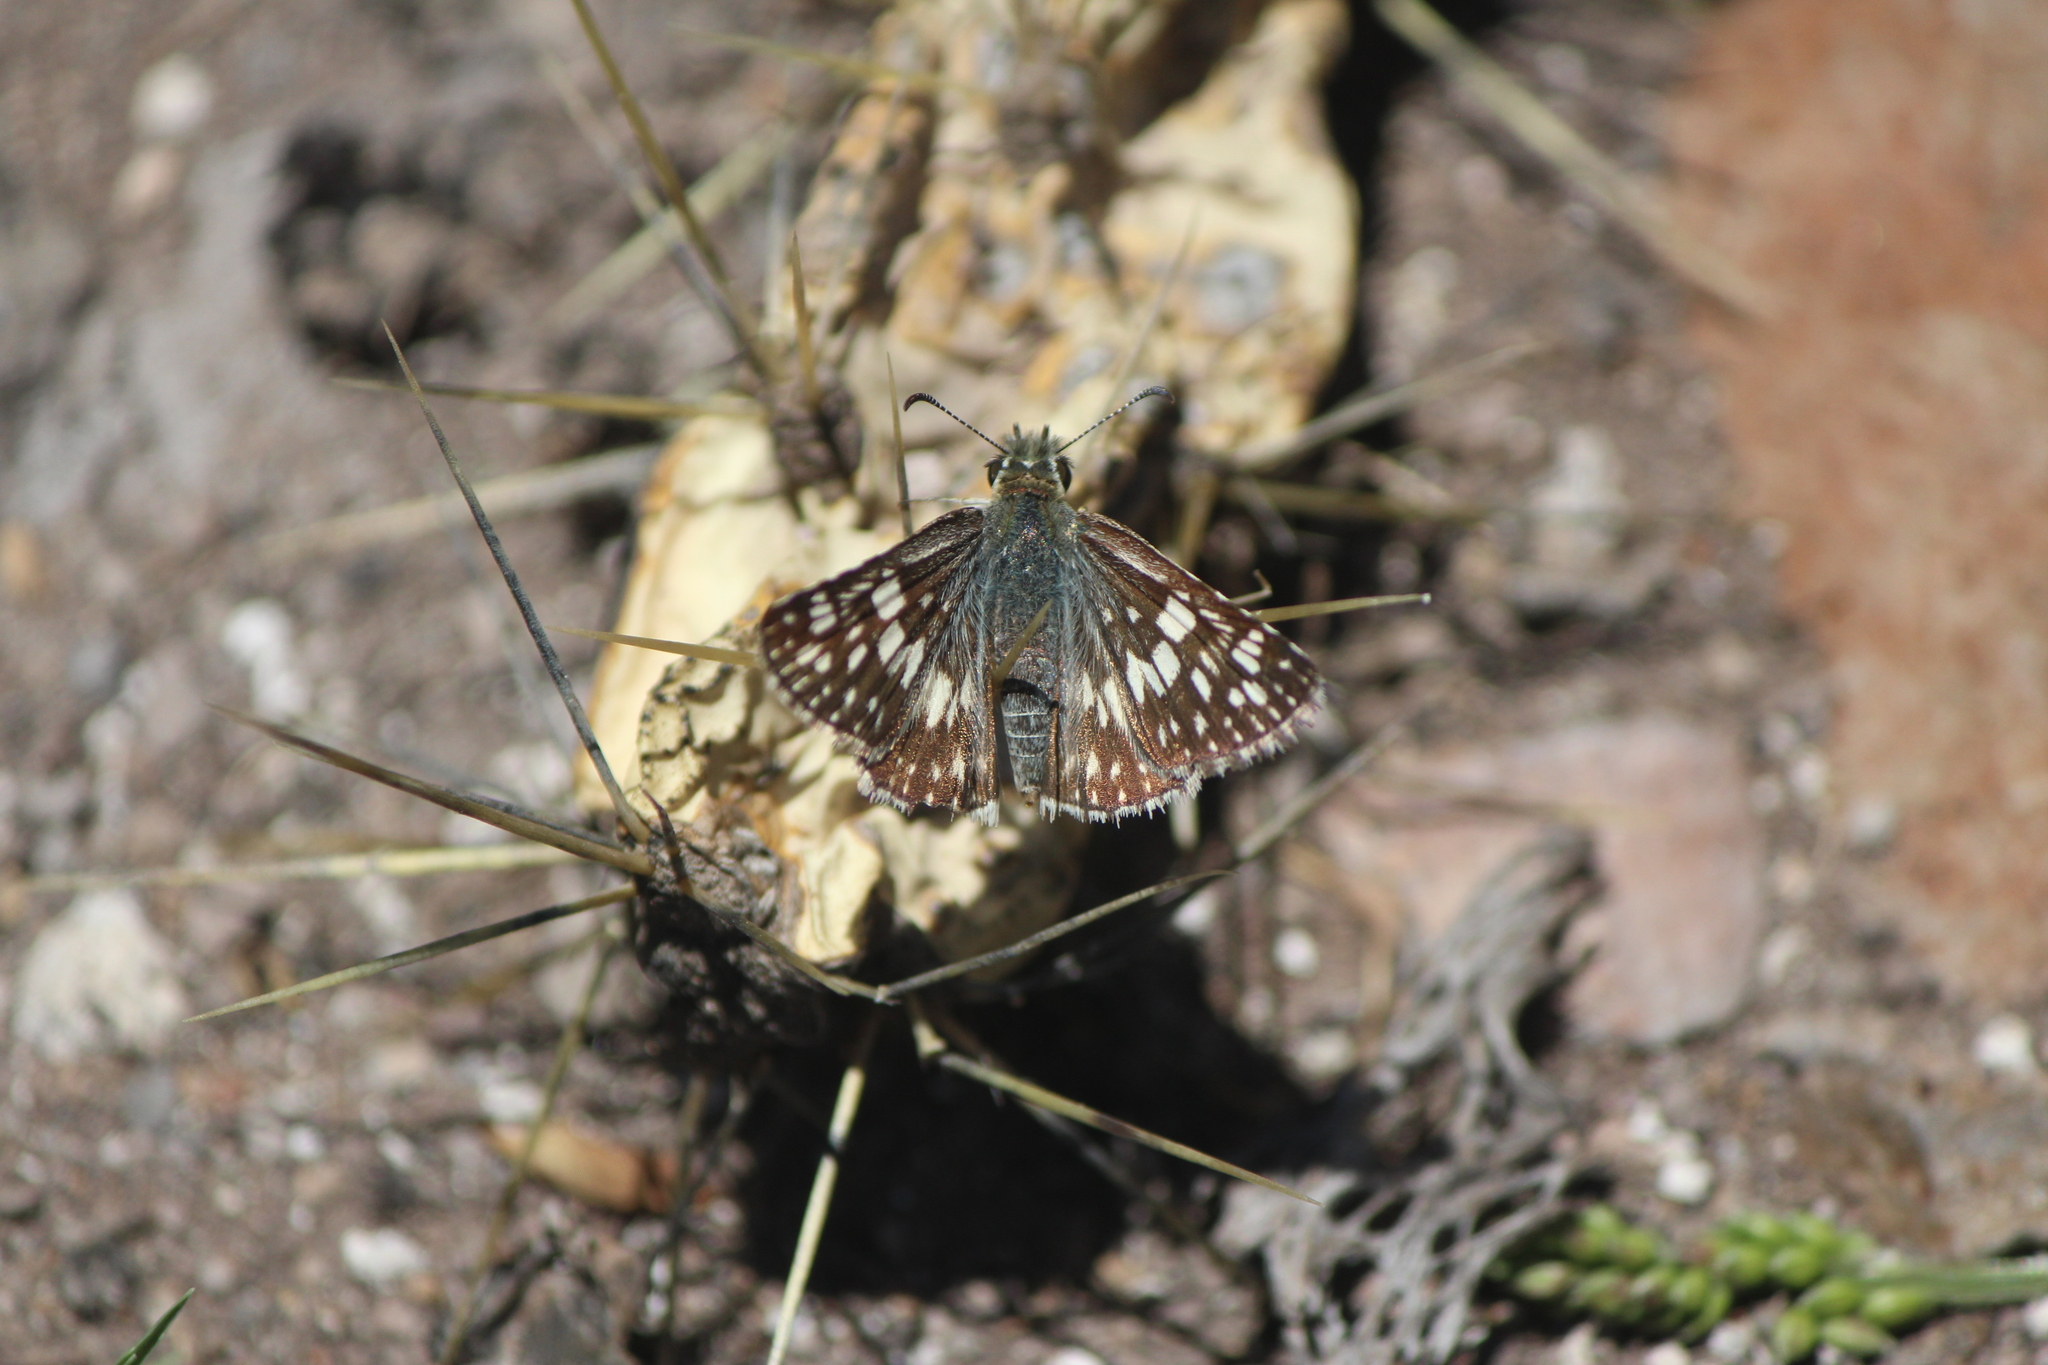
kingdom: Animalia
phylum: Arthropoda
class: Insecta
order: Lepidoptera
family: Hesperiidae
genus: Pyrgus
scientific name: Pyrgus oileus
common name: Tropical checkered-skipper
